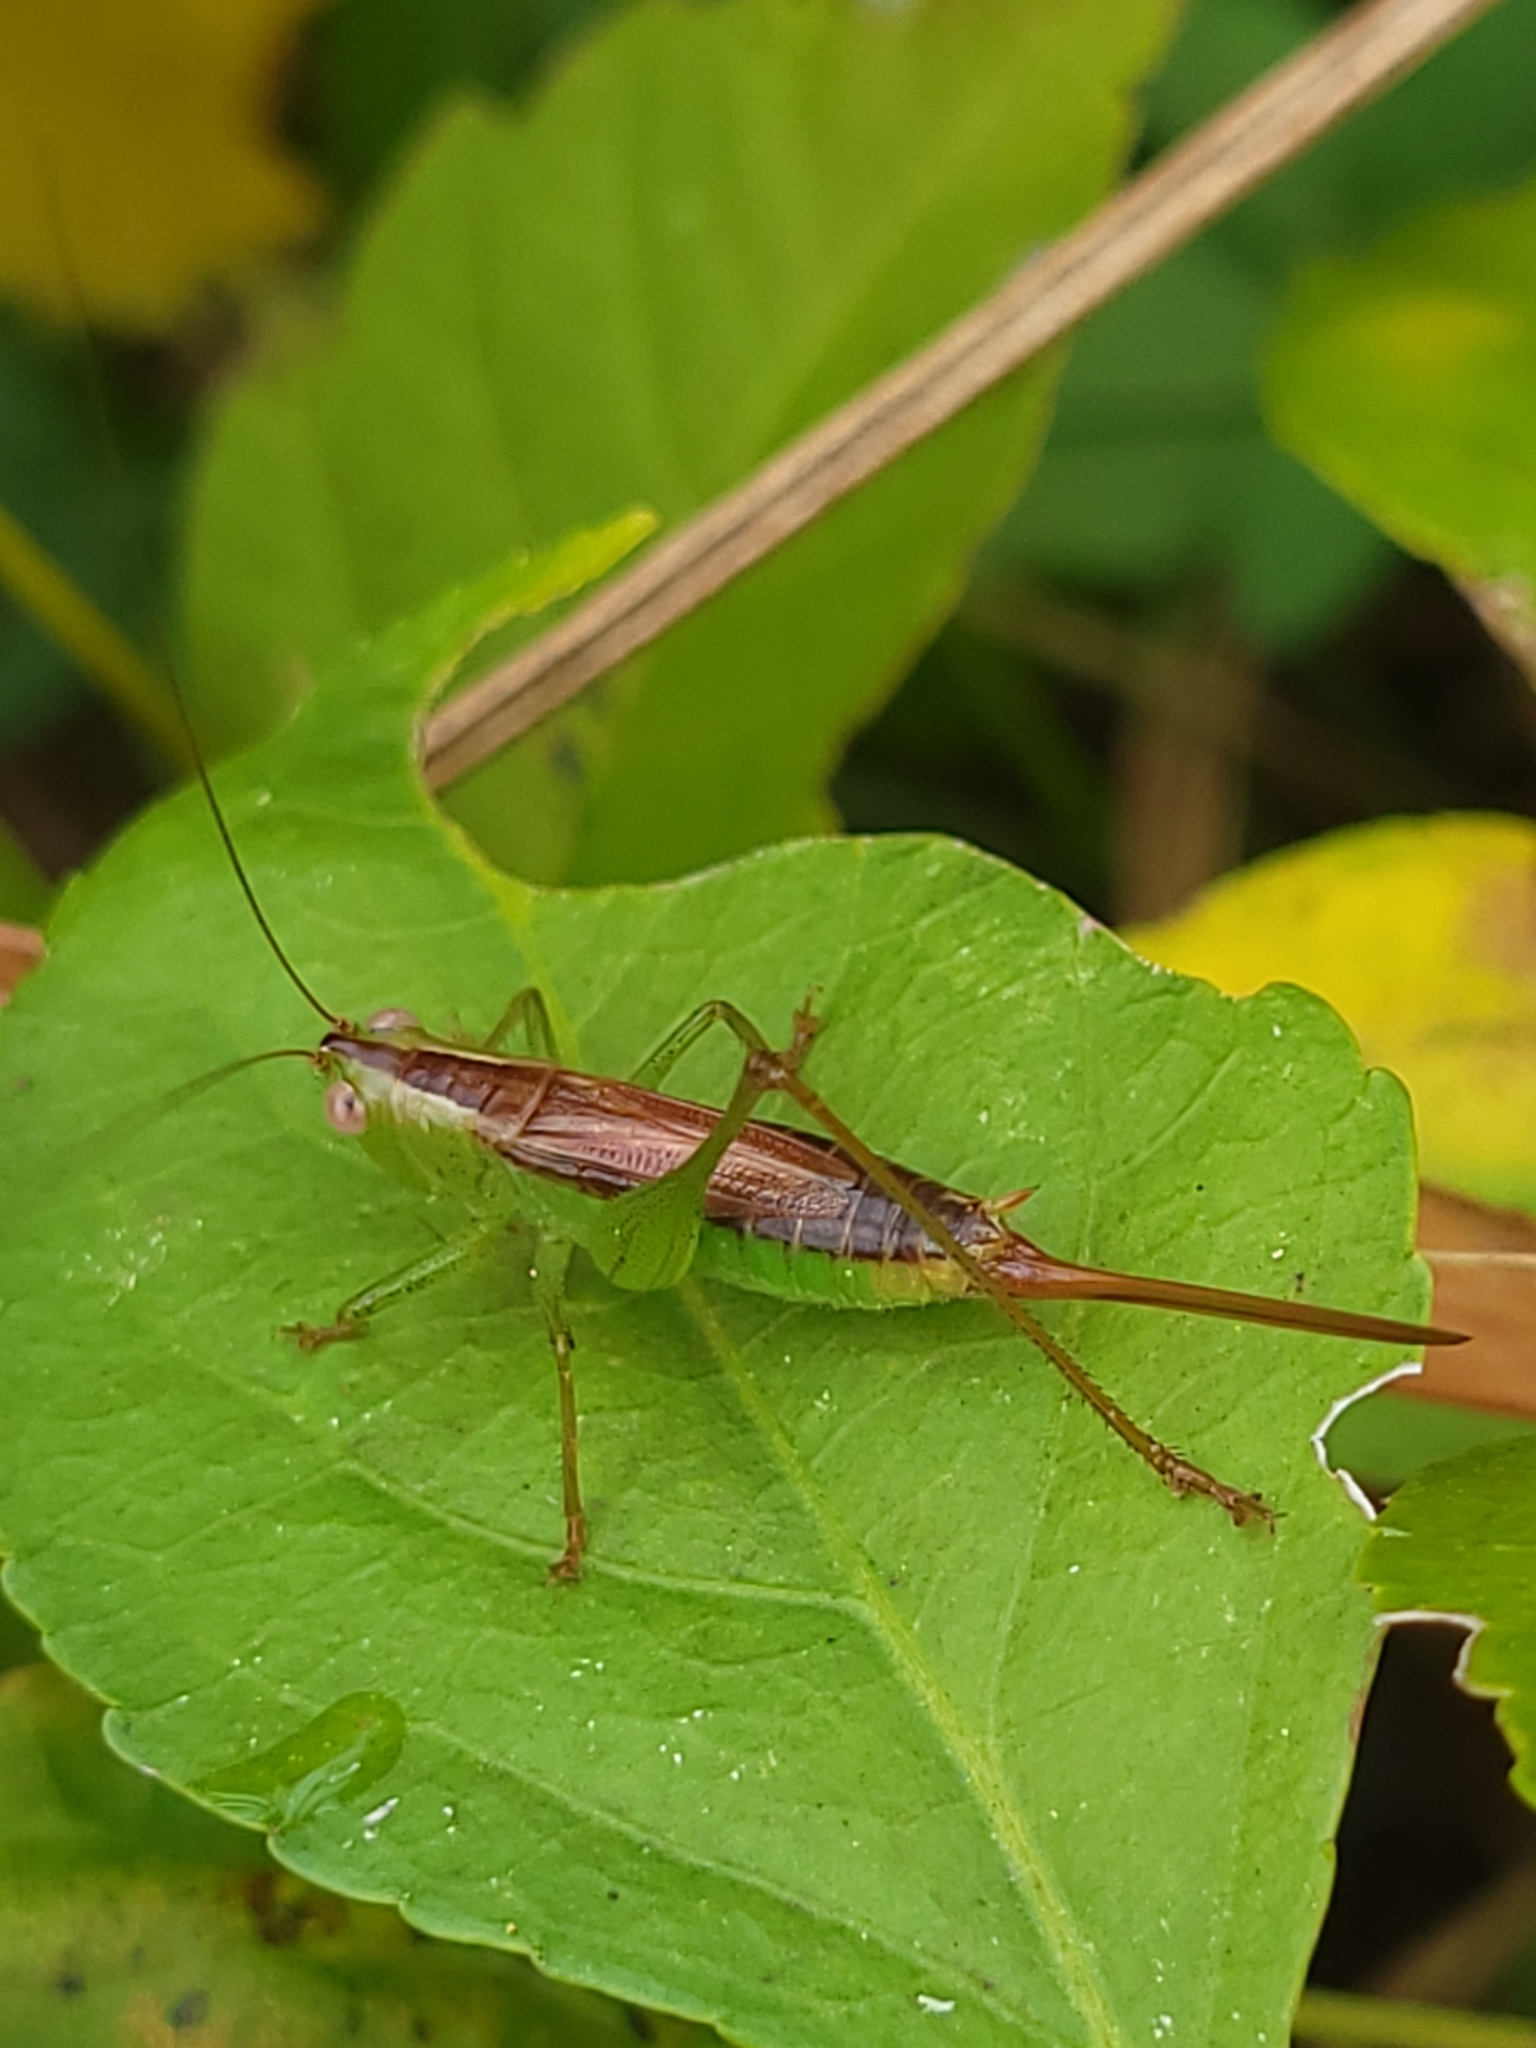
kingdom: Animalia
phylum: Arthropoda
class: Insecta
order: Orthoptera
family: Tettigoniidae
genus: Conocephalus
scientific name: Conocephalus brevipennis
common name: Short-winged meadow katydid
